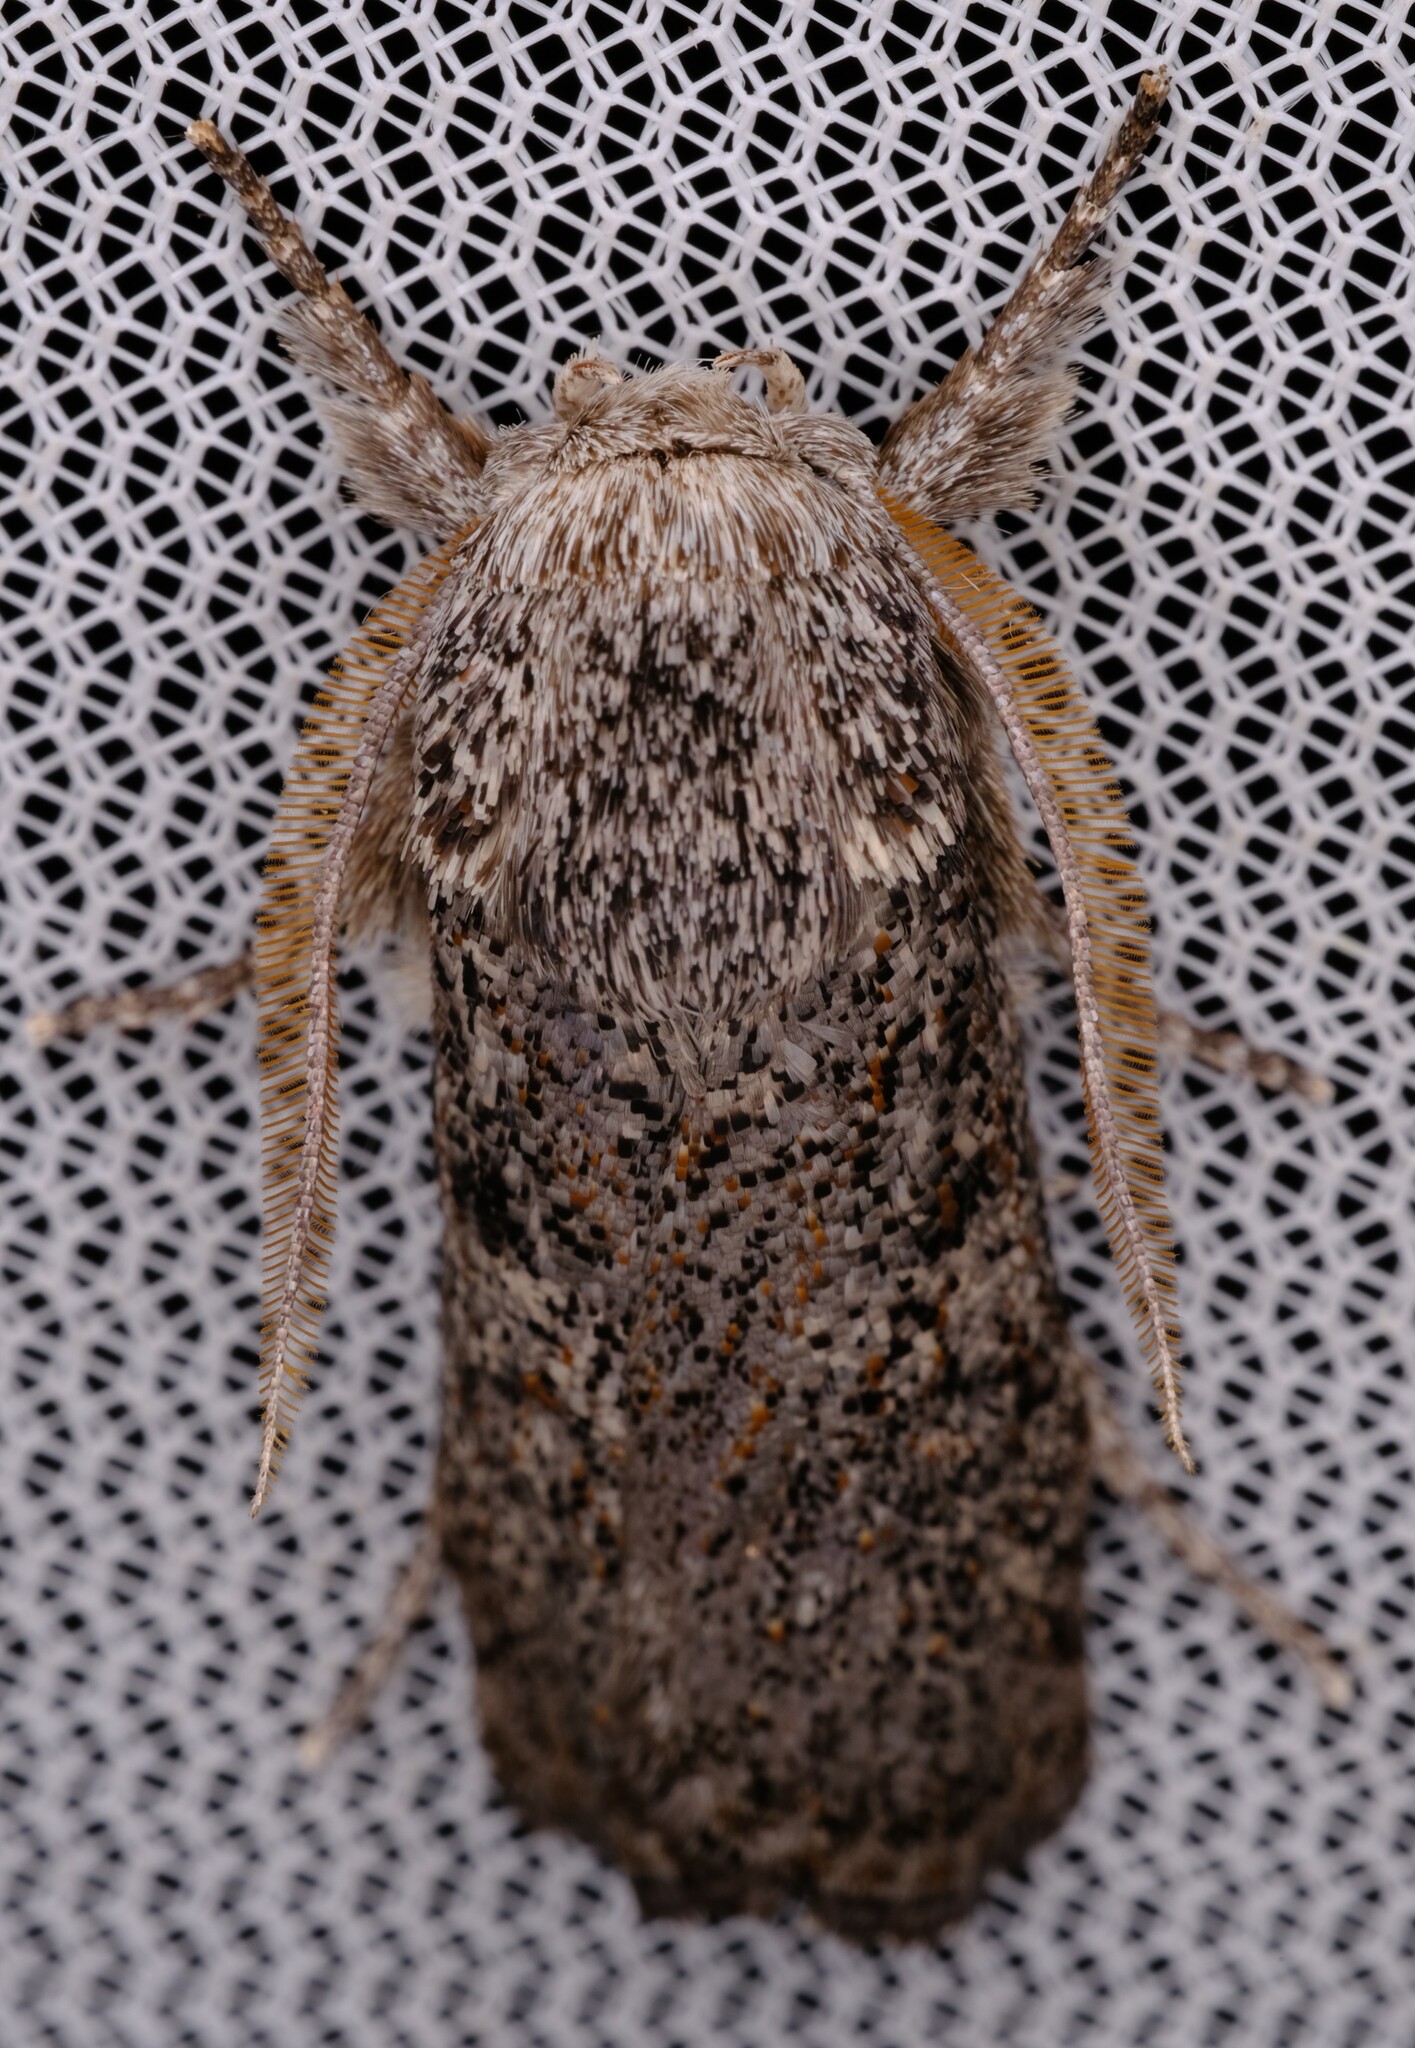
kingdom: Animalia
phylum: Arthropoda
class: Insecta
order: Lepidoptera
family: Xyloryctidae
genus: Cryptophasa
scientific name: Cryptophasa irrorata
